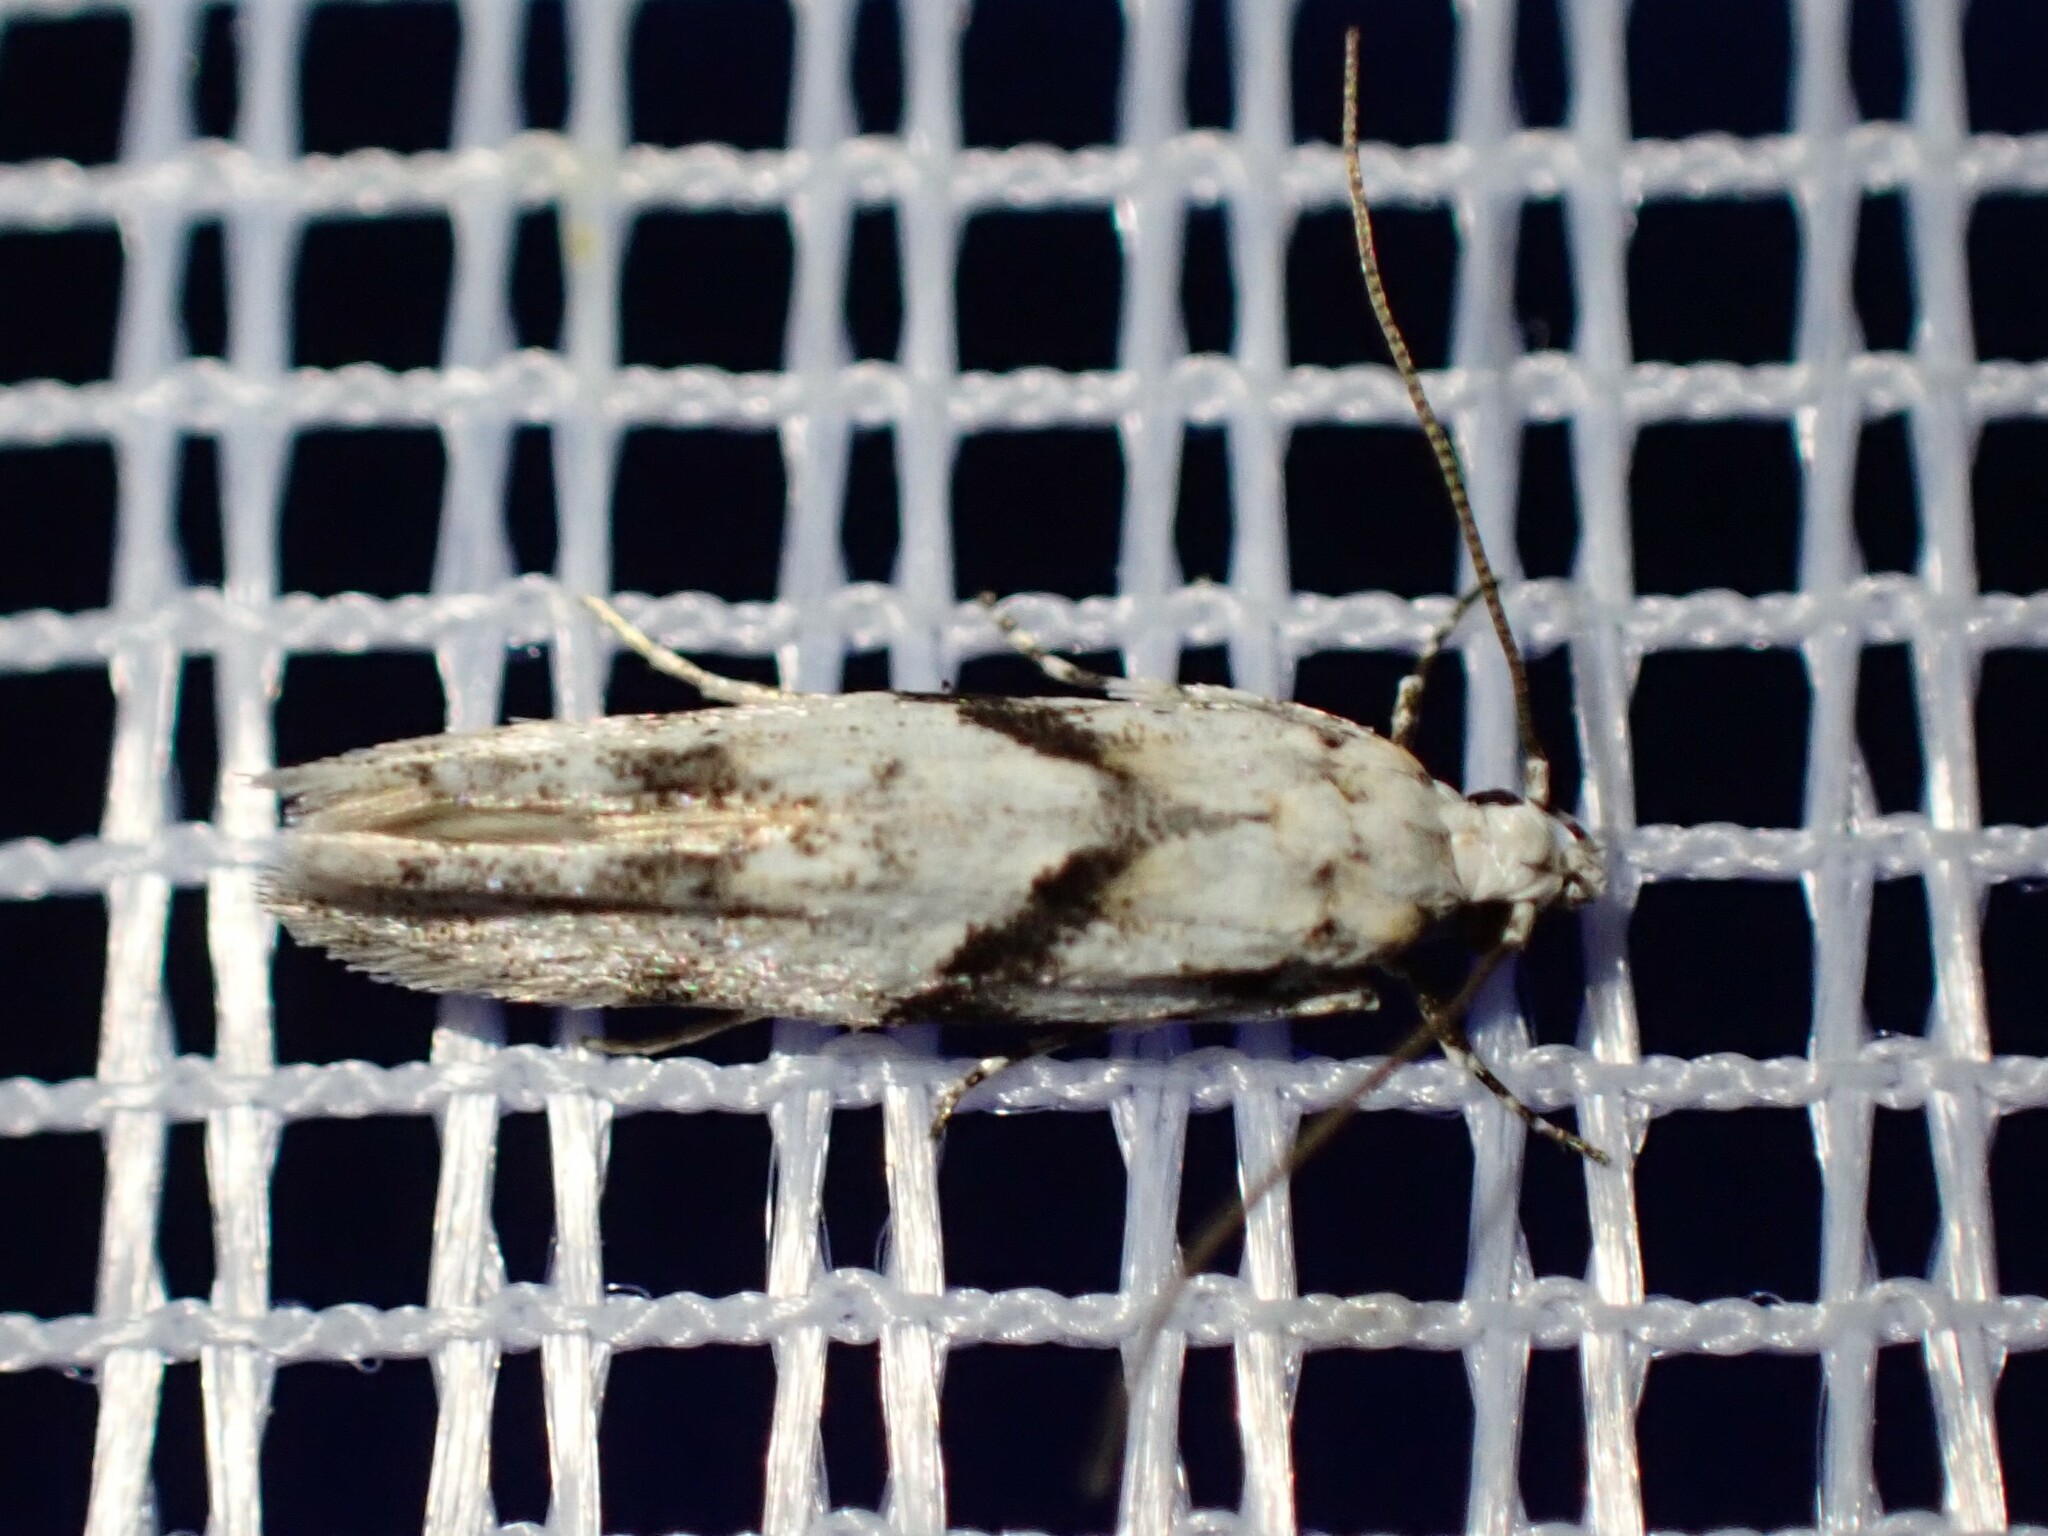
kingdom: Animalia
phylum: Arthropoda
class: Insecta
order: Lepidoptera
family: Gelechiidae
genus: Arogalea
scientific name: Arogalea cristifasciella
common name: White stripe-backed moth
